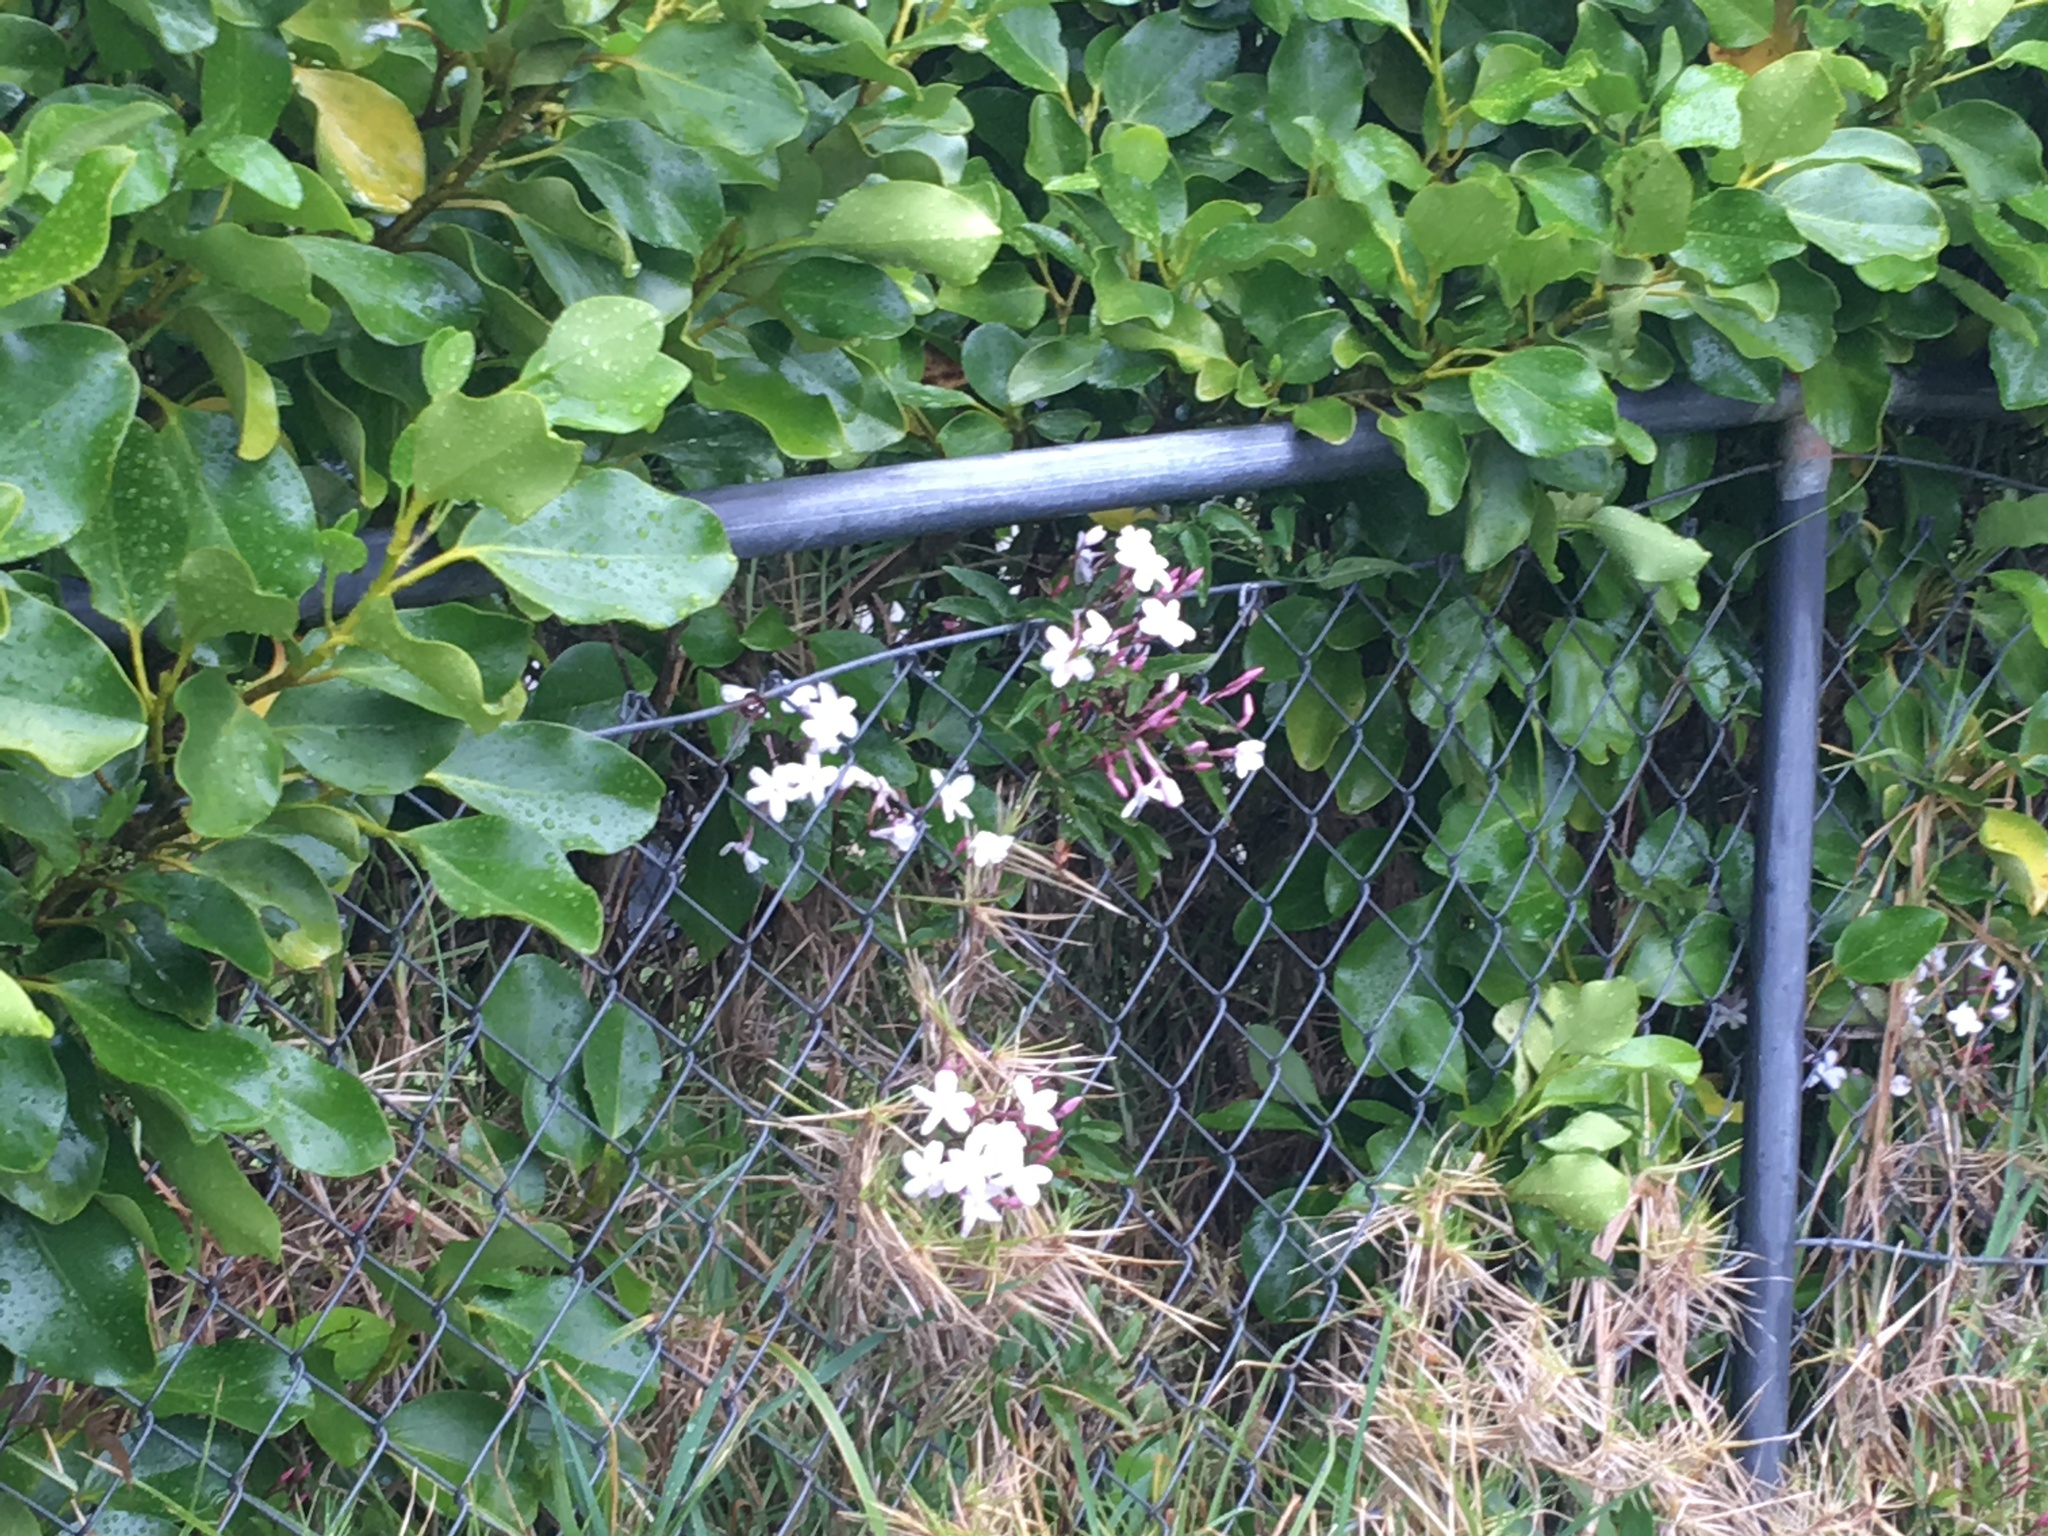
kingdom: Plantae
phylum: Tracheophyta
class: Magnoliopsida
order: Lamiales
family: Oleaceae
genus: Jasminum
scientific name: Jasminum polyanthum
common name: Pink jasmine
